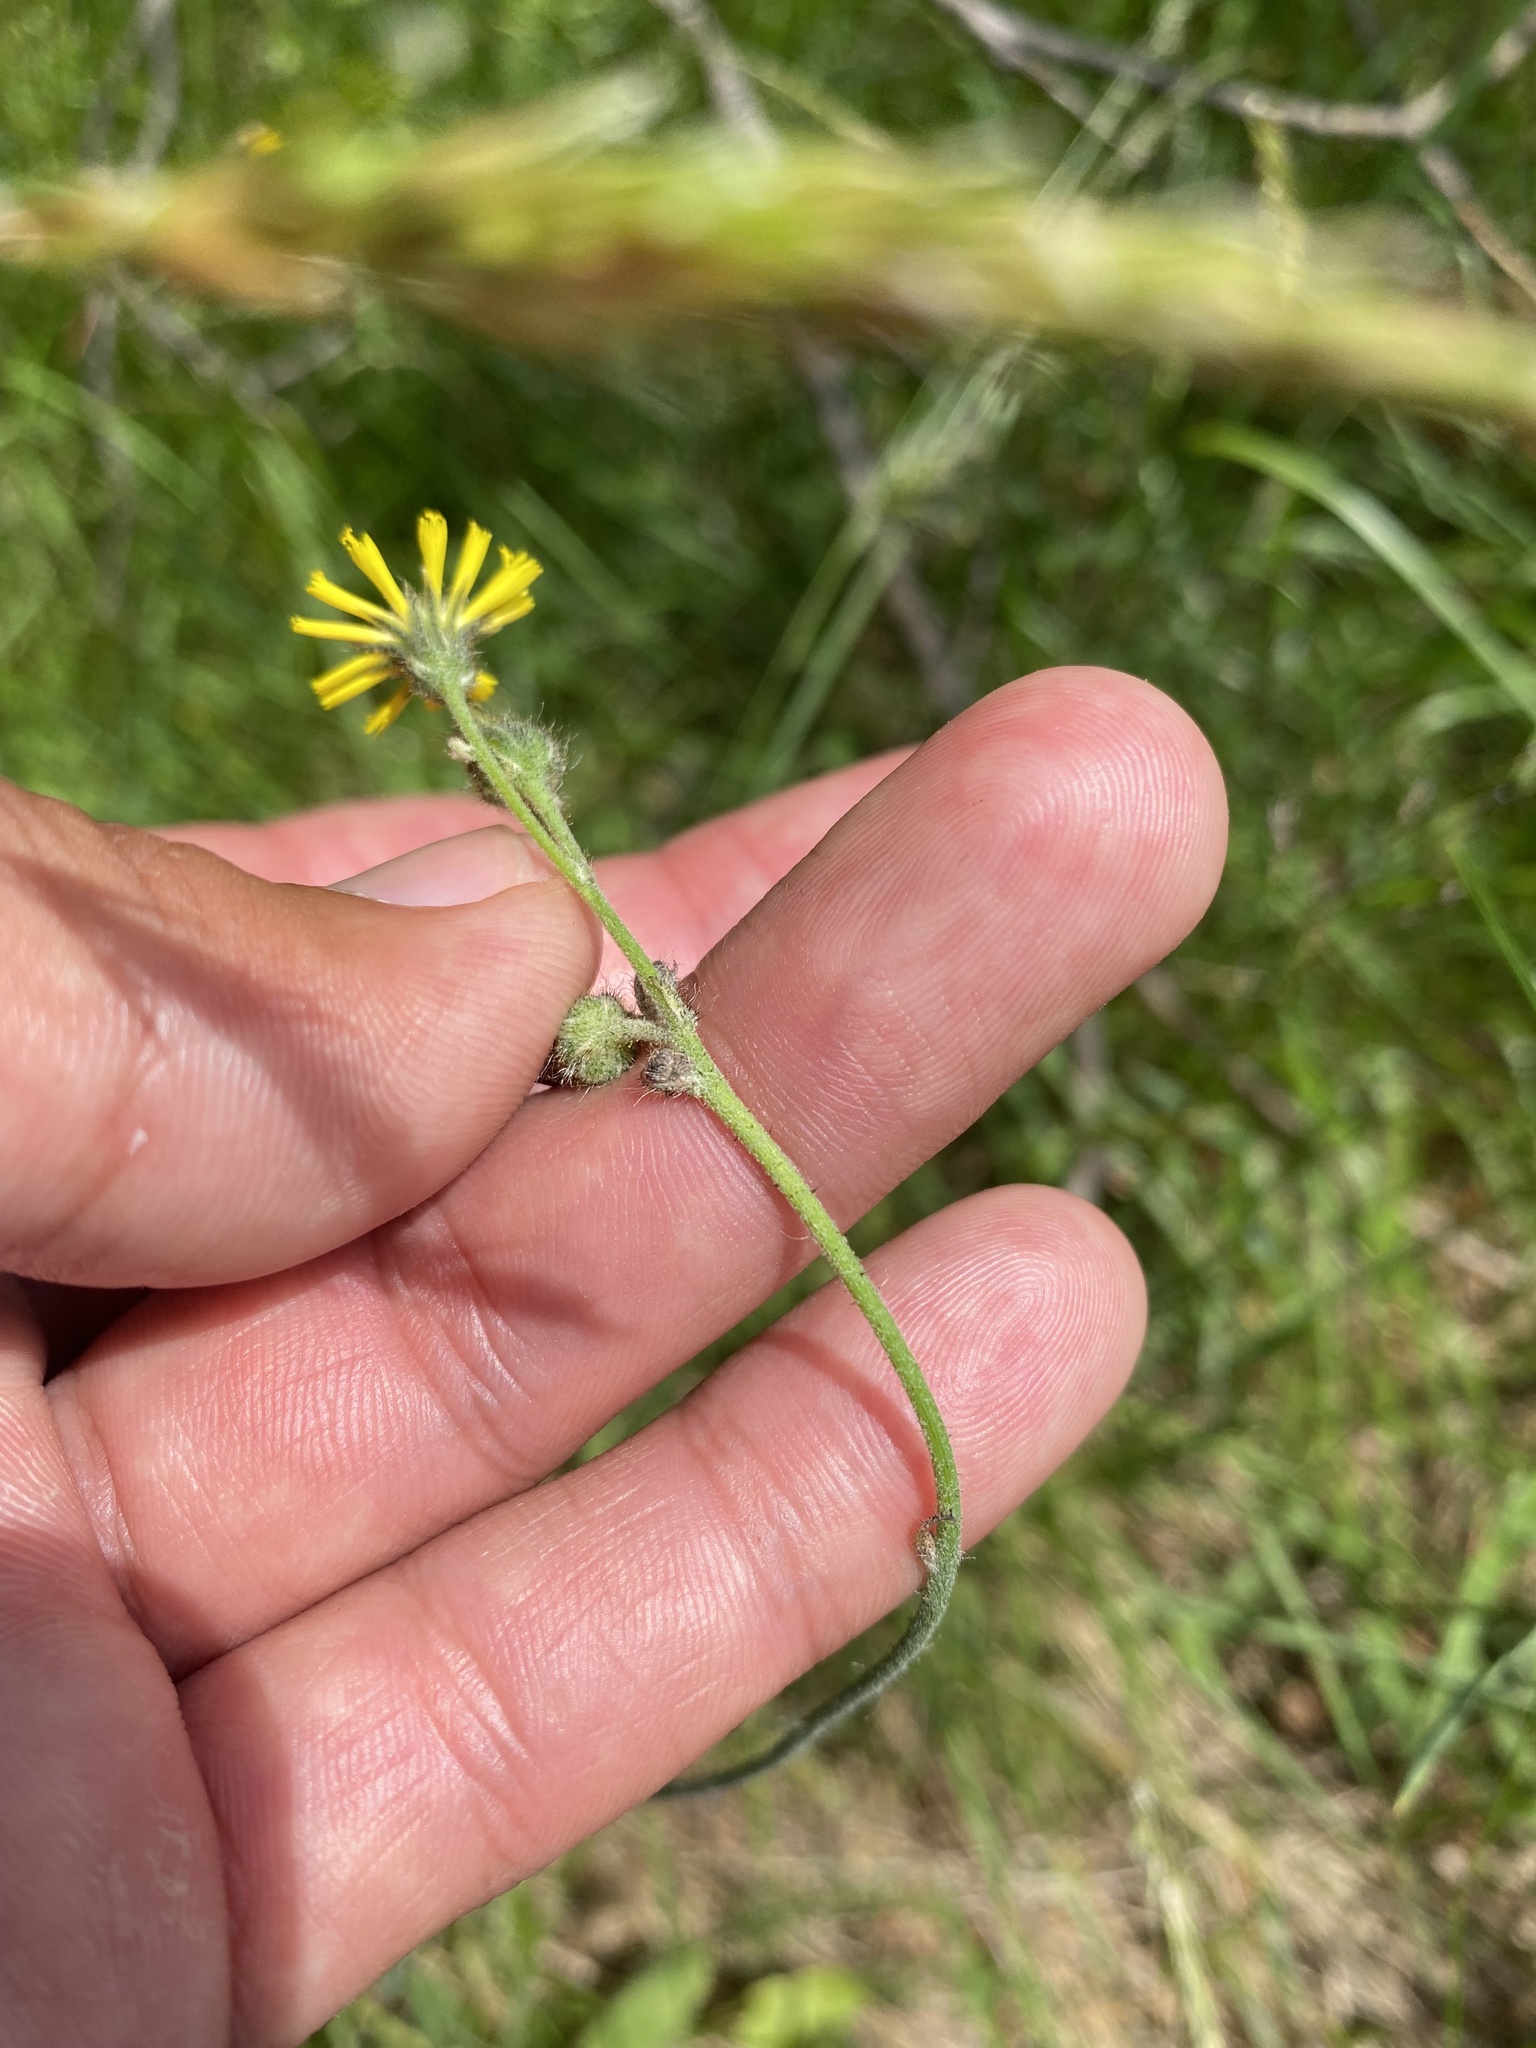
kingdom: Plantae
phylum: Tracheophyta
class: Magnoliopsida
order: Asterales
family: Asteraceae
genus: Hieracium
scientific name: Hieracium krylovii
